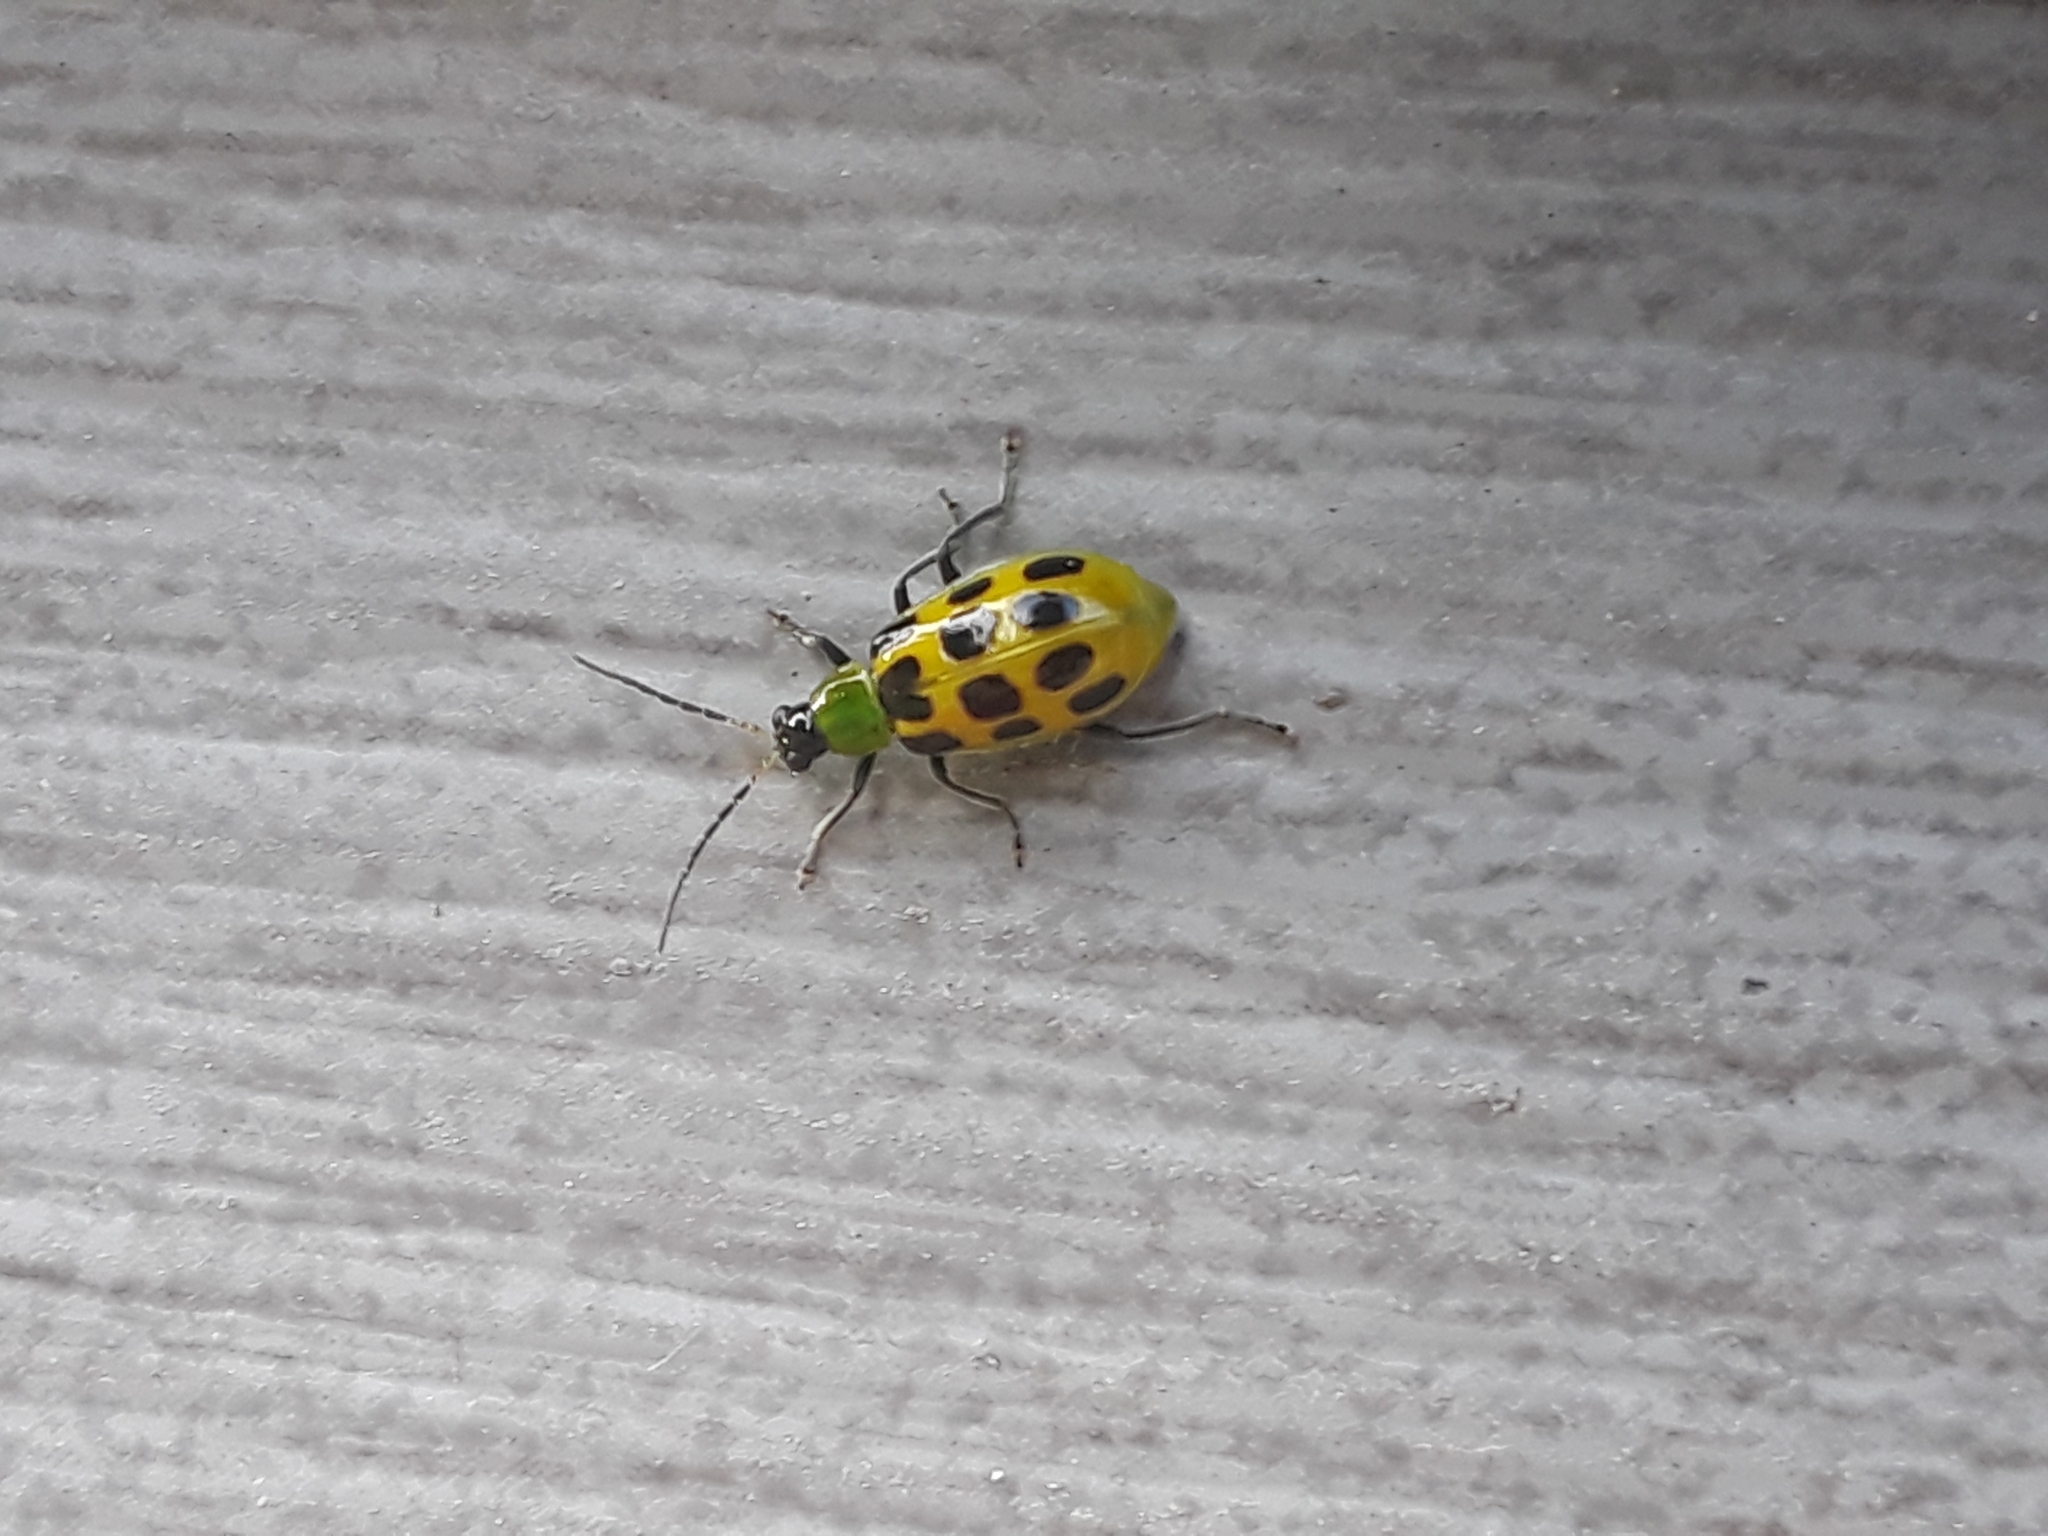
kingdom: Animalia
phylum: Arthropoda
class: Insecta
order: Coleoptera
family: Chrysomelidae
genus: Diabrotica
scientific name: Diabrotica undecimpunctata
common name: Spotted cucumber beetle
